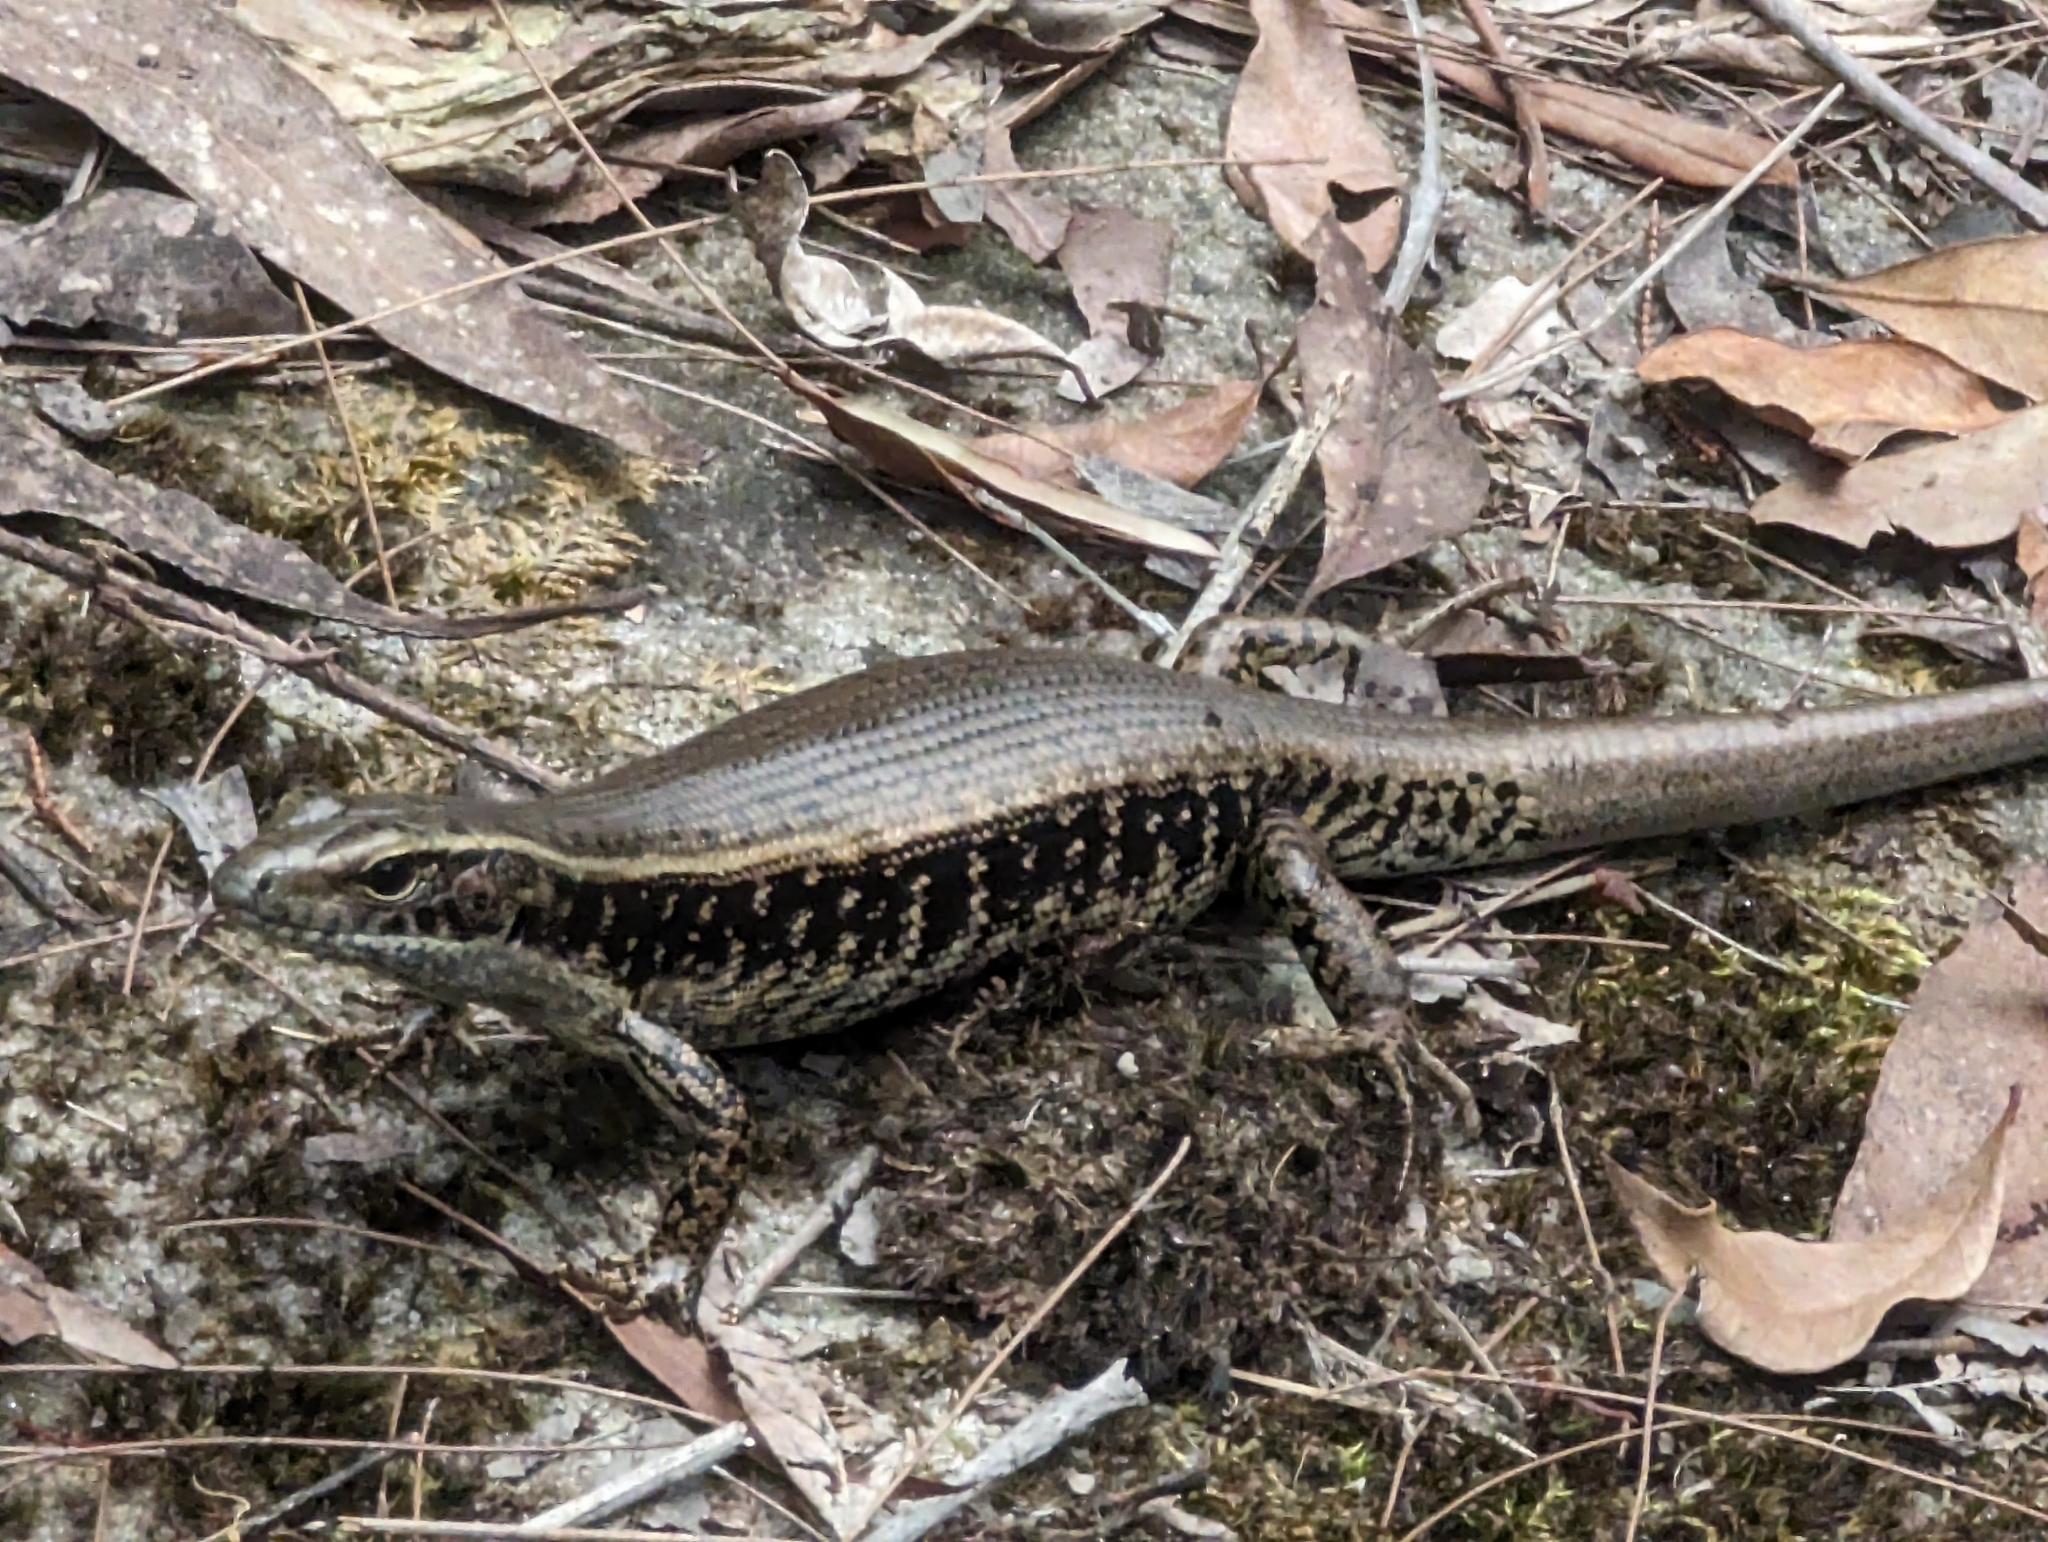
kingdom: Animalia
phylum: Chordata
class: Squamata
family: Scincidae
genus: Eulamprus
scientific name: Eulamprus quoyii
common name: Eastern water skink
